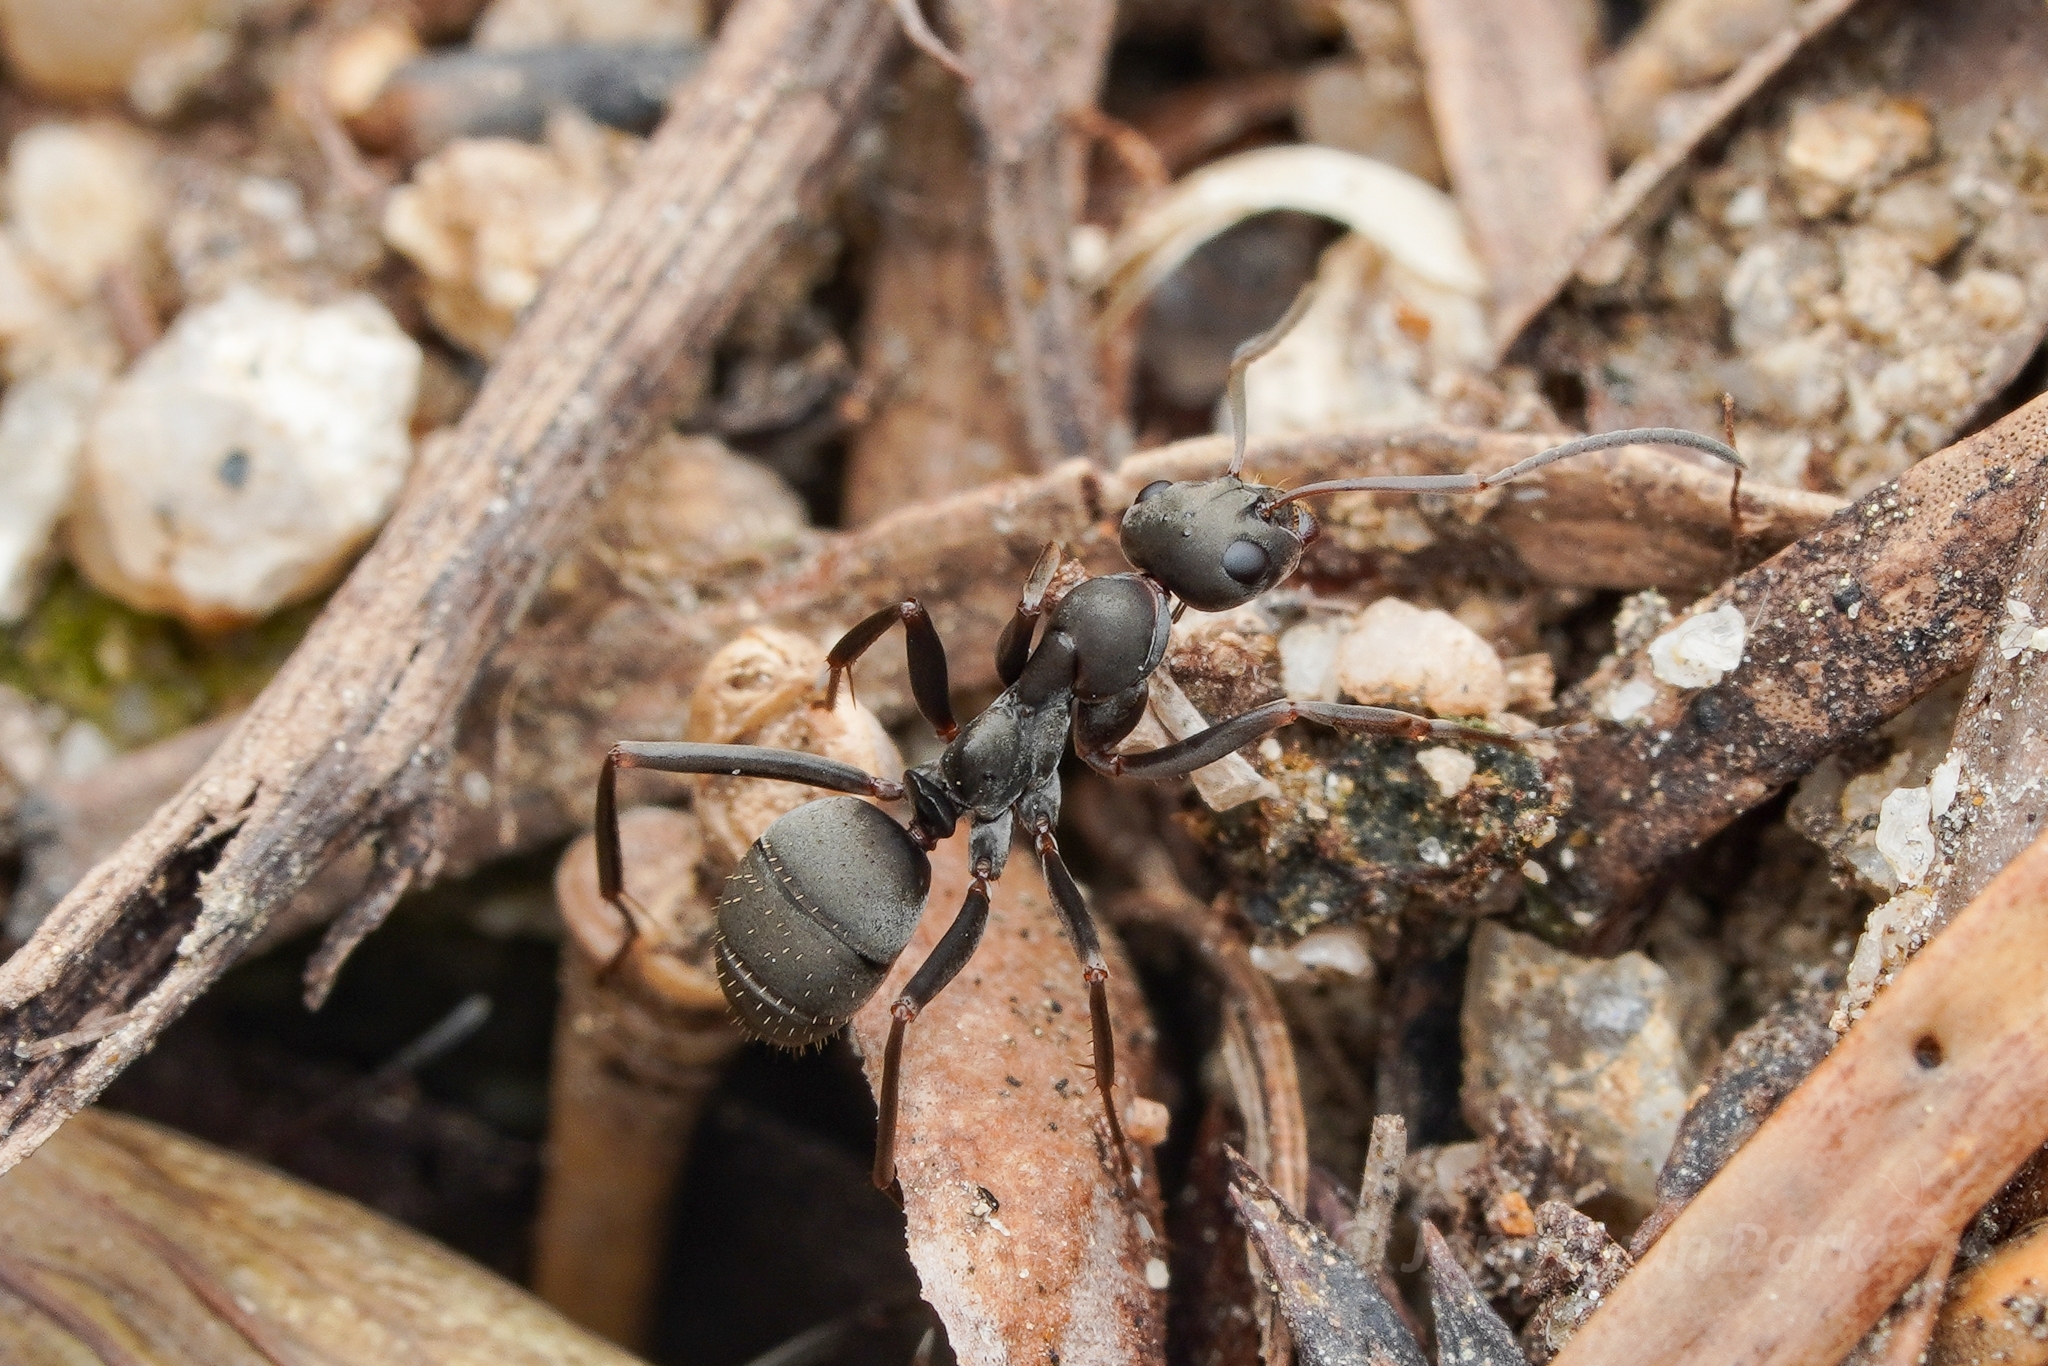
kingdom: Animalia
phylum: Arthropoda
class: Insecta
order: Hymenoptera
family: Formicidae
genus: Formica
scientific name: Formica japonica
